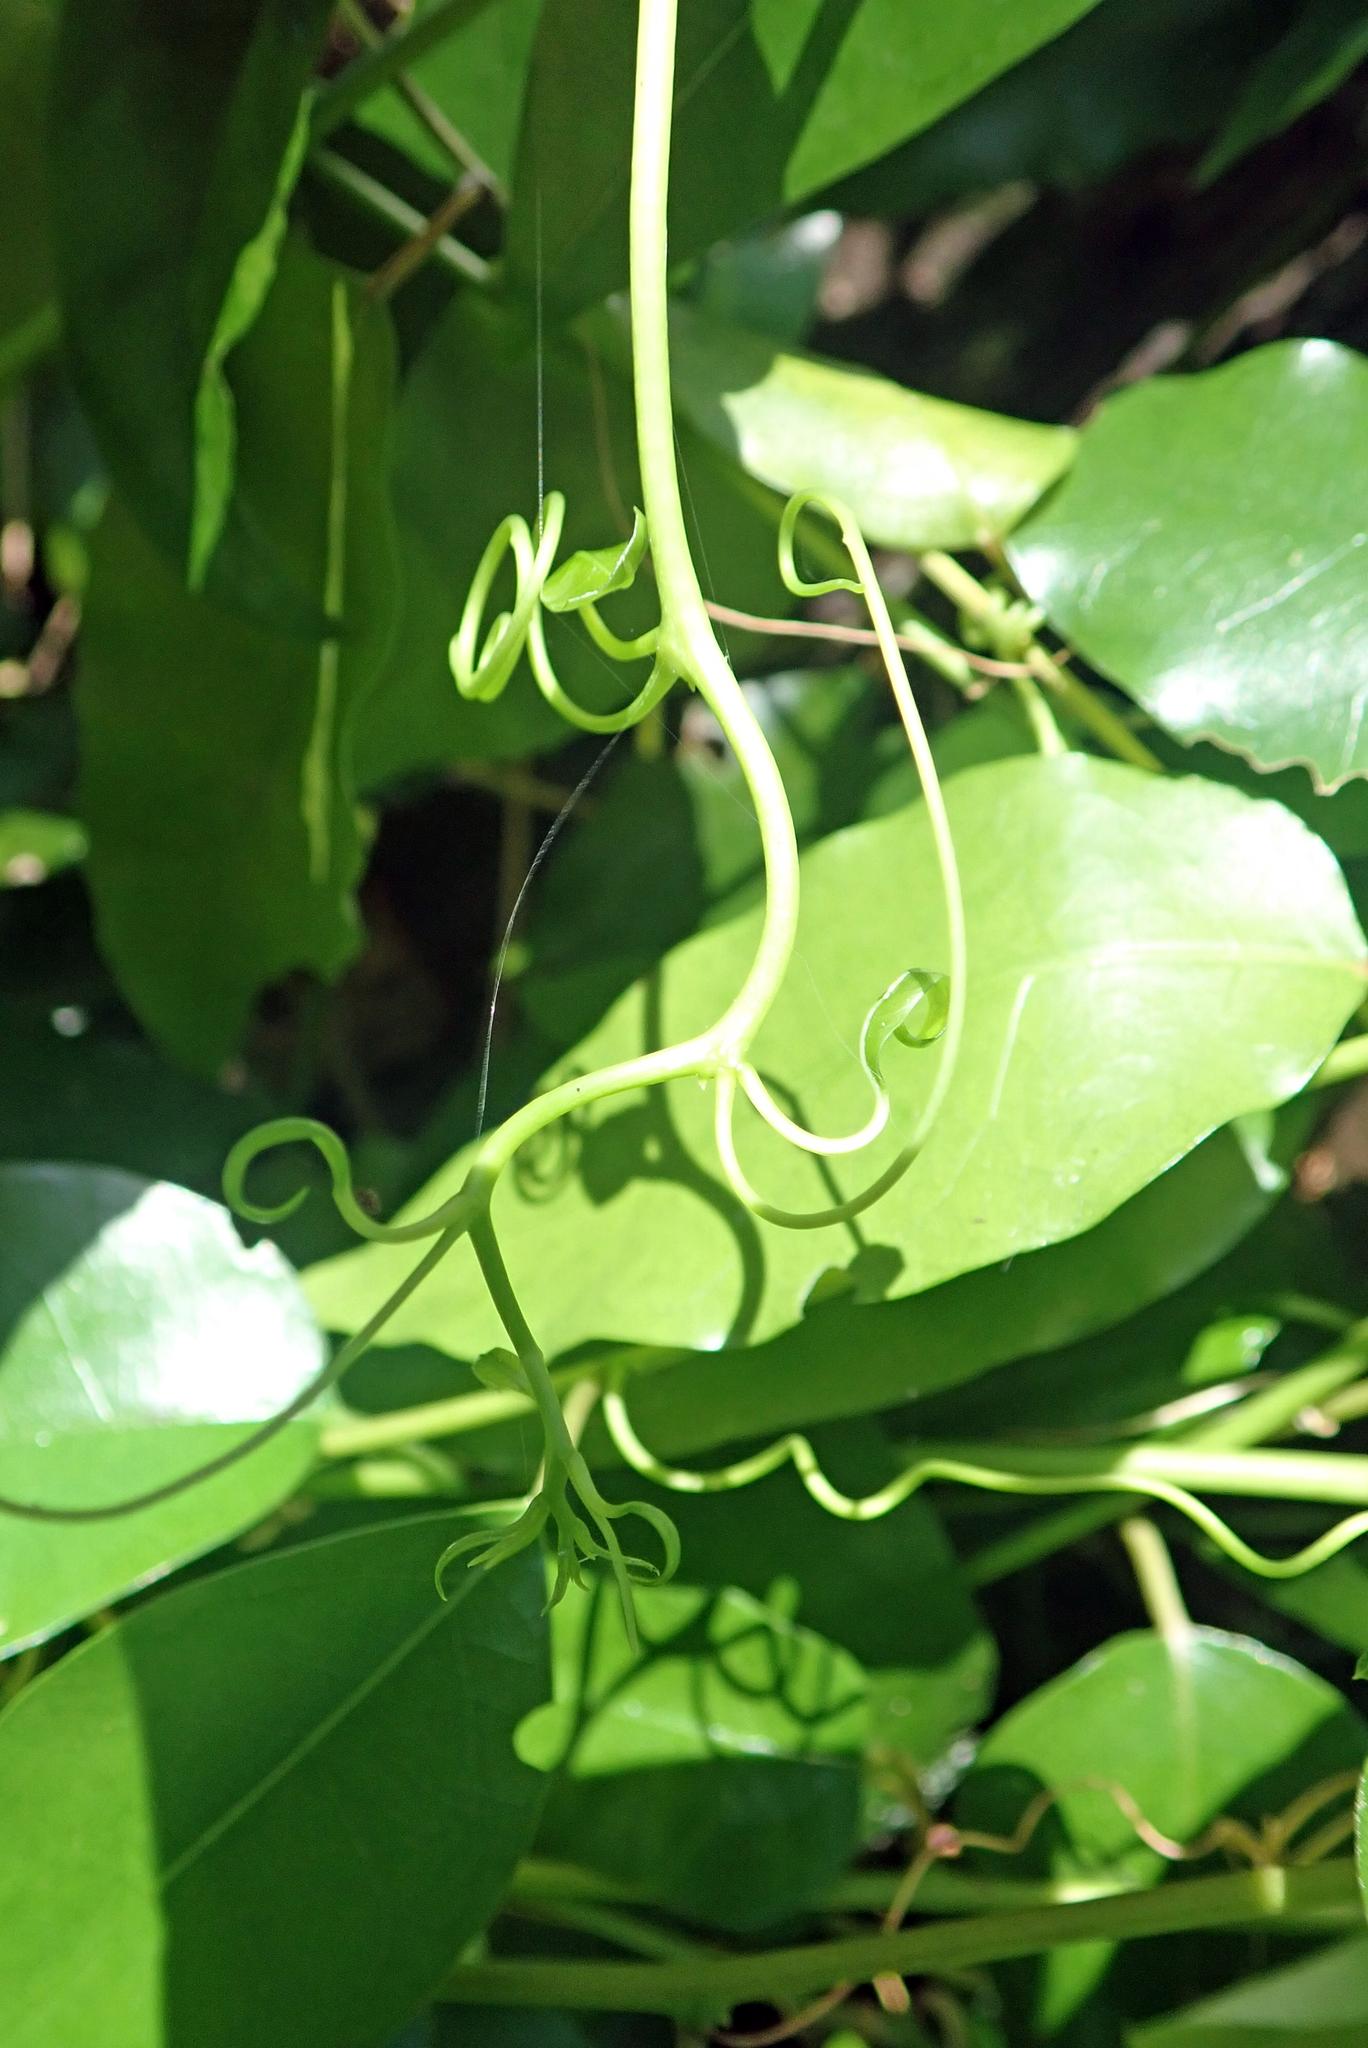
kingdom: Plantae
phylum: Tracheophyta
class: Magnoliopsida
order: Malpighiales
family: Passifloraceae
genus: Passiflora
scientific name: Passiflora tetrandra
